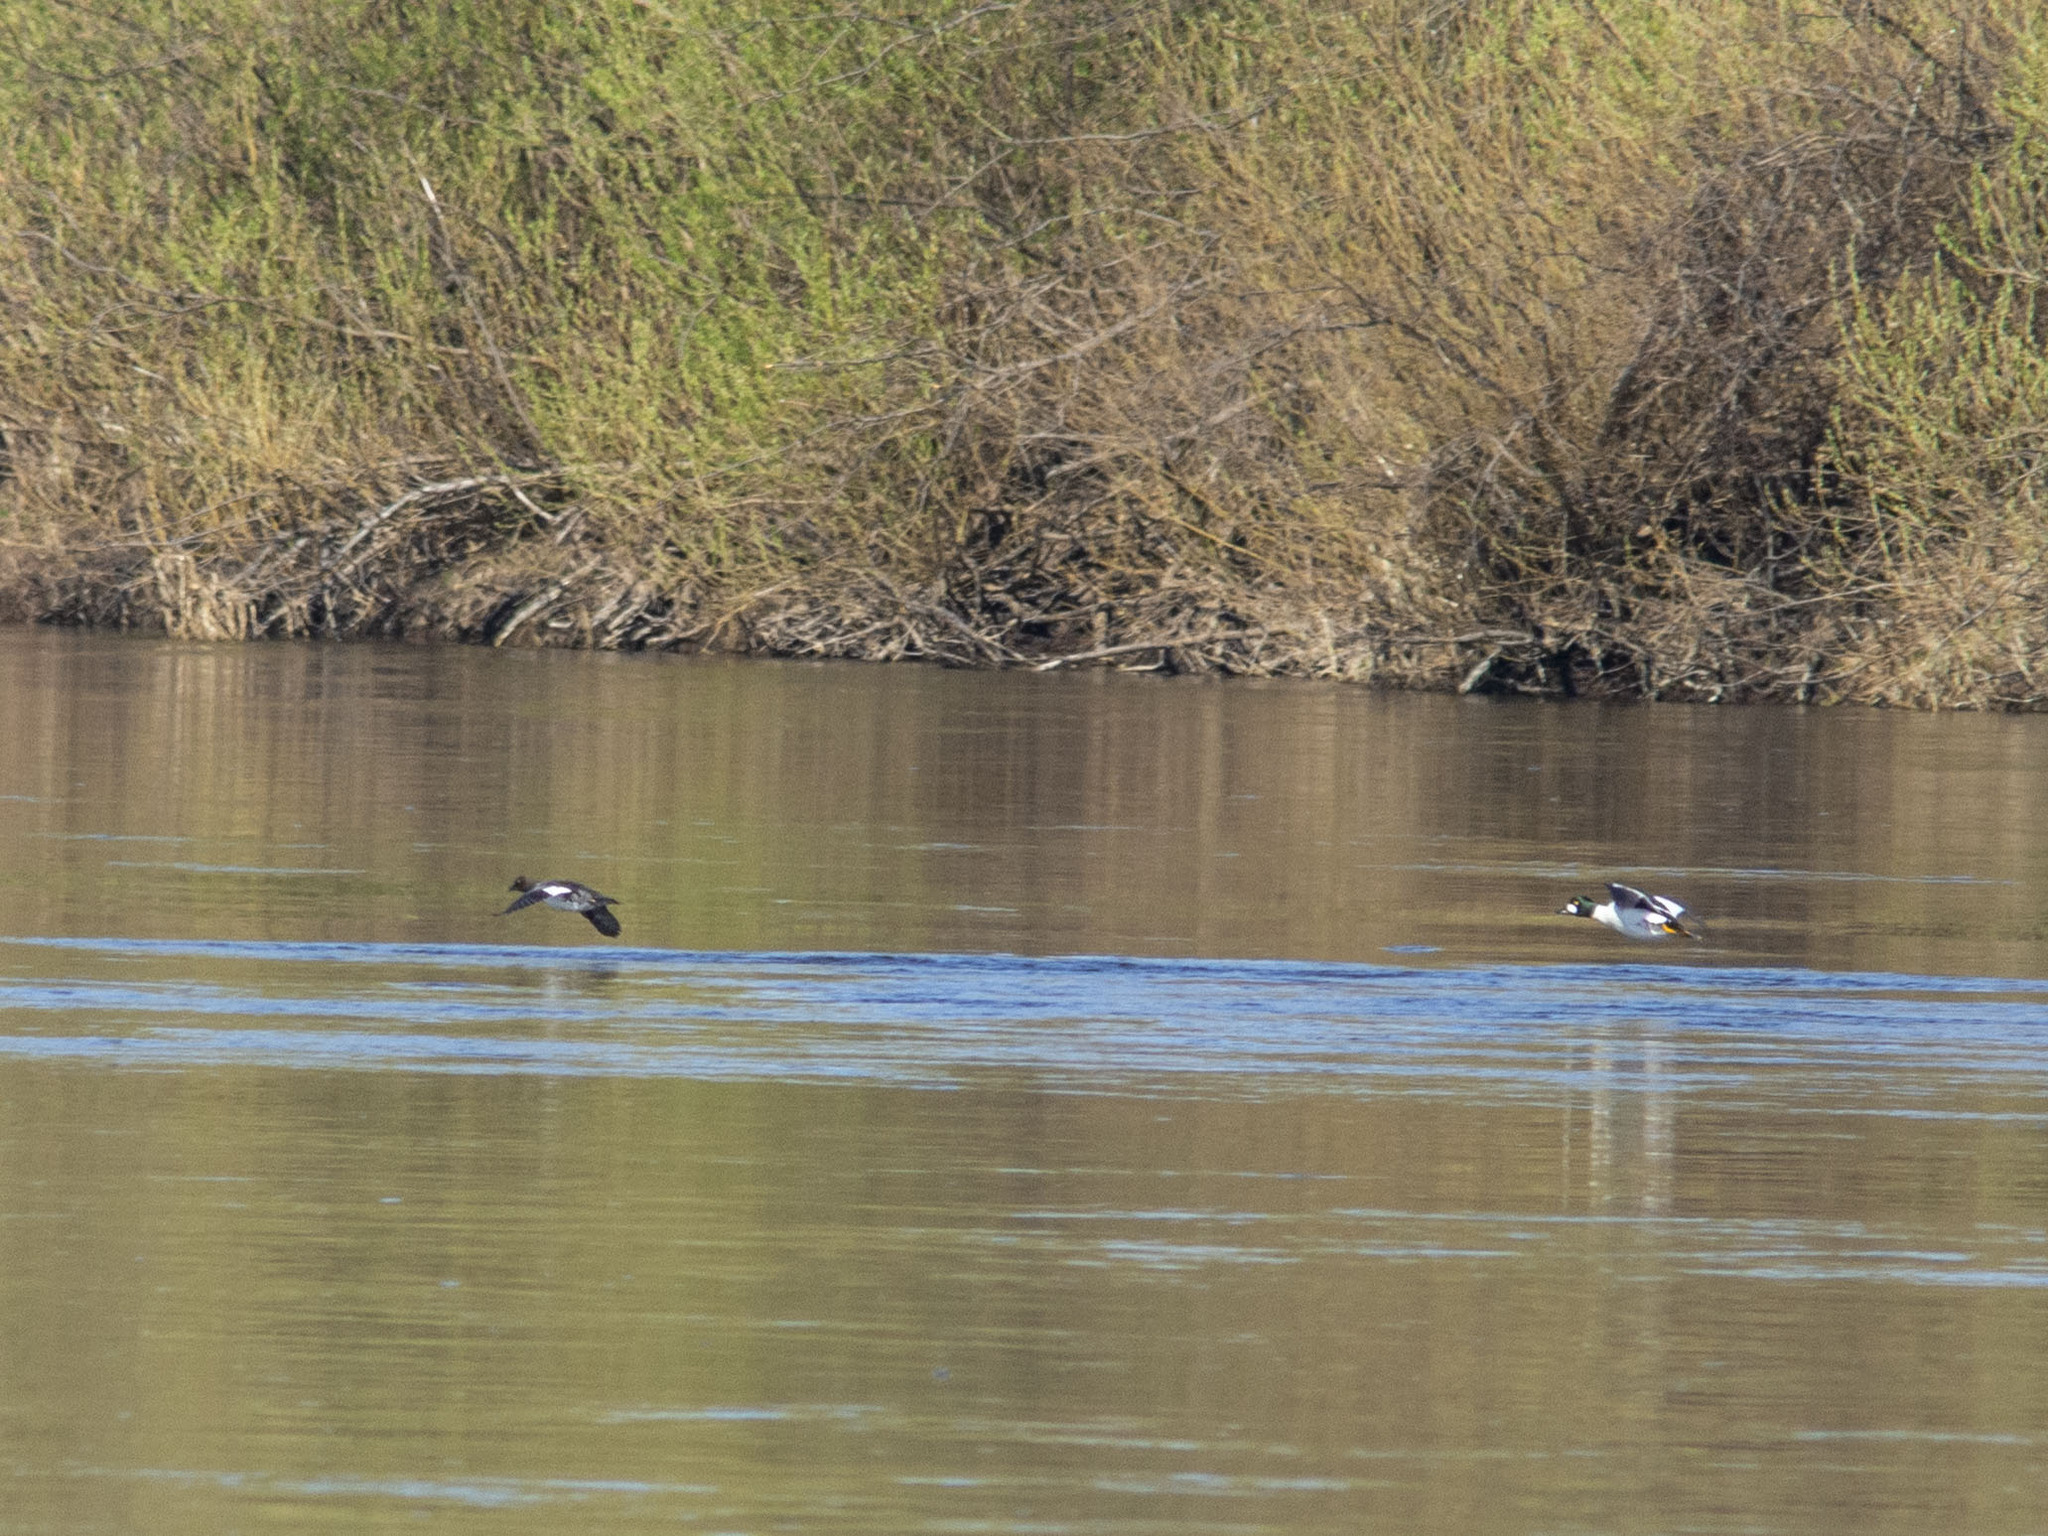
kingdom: Animalia
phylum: Chordata
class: Aves
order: Anseriformes
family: Anatidae
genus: Bucephala
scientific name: Bucephala clangula
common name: Common goldeneye
